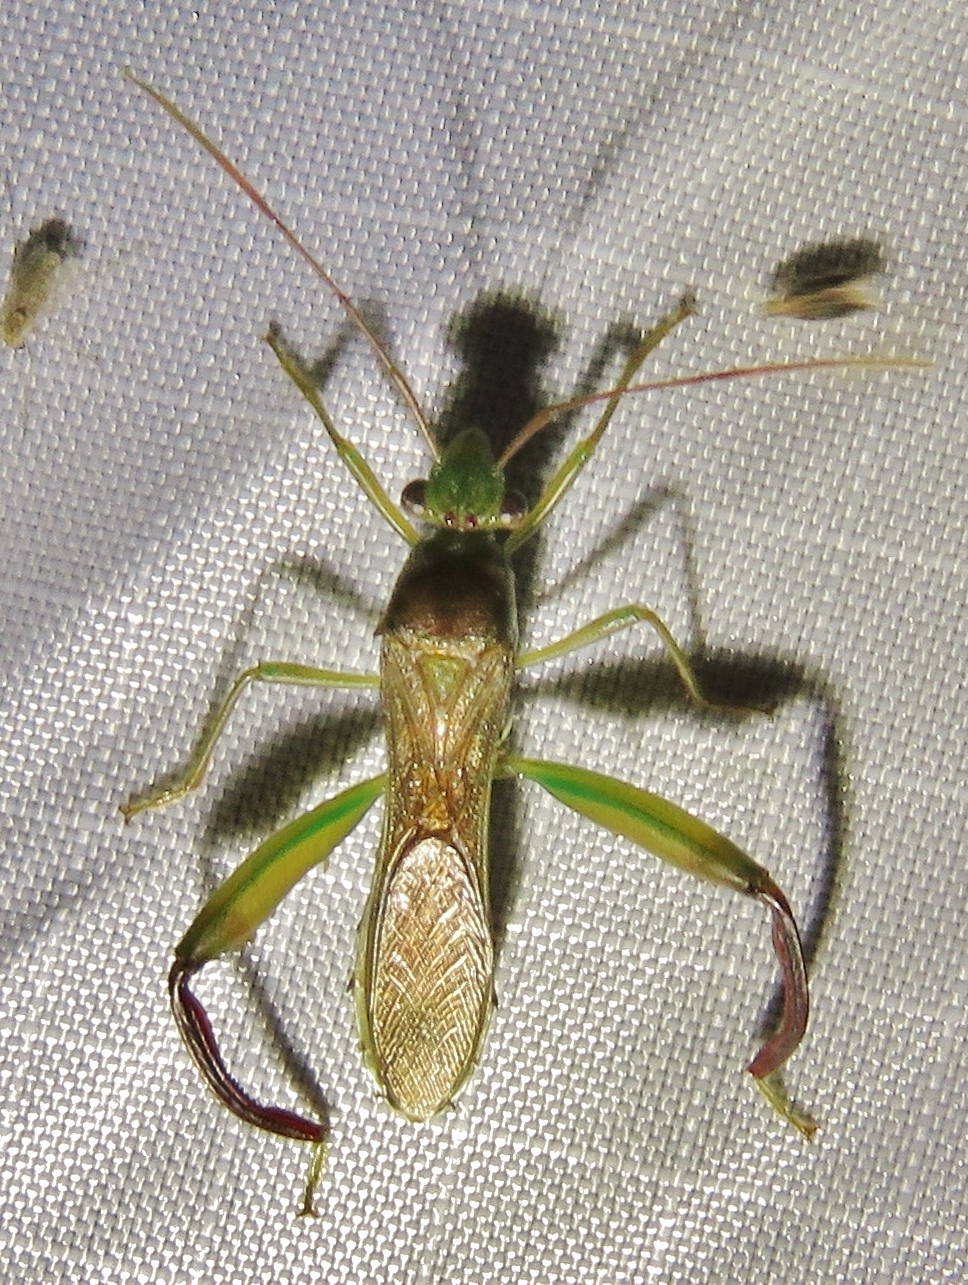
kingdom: Animalia
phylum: Arthropoda
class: Insecta
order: Hemiptera
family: Alydidae
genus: Hyalymenus
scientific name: Hyalymenus tarsatus
